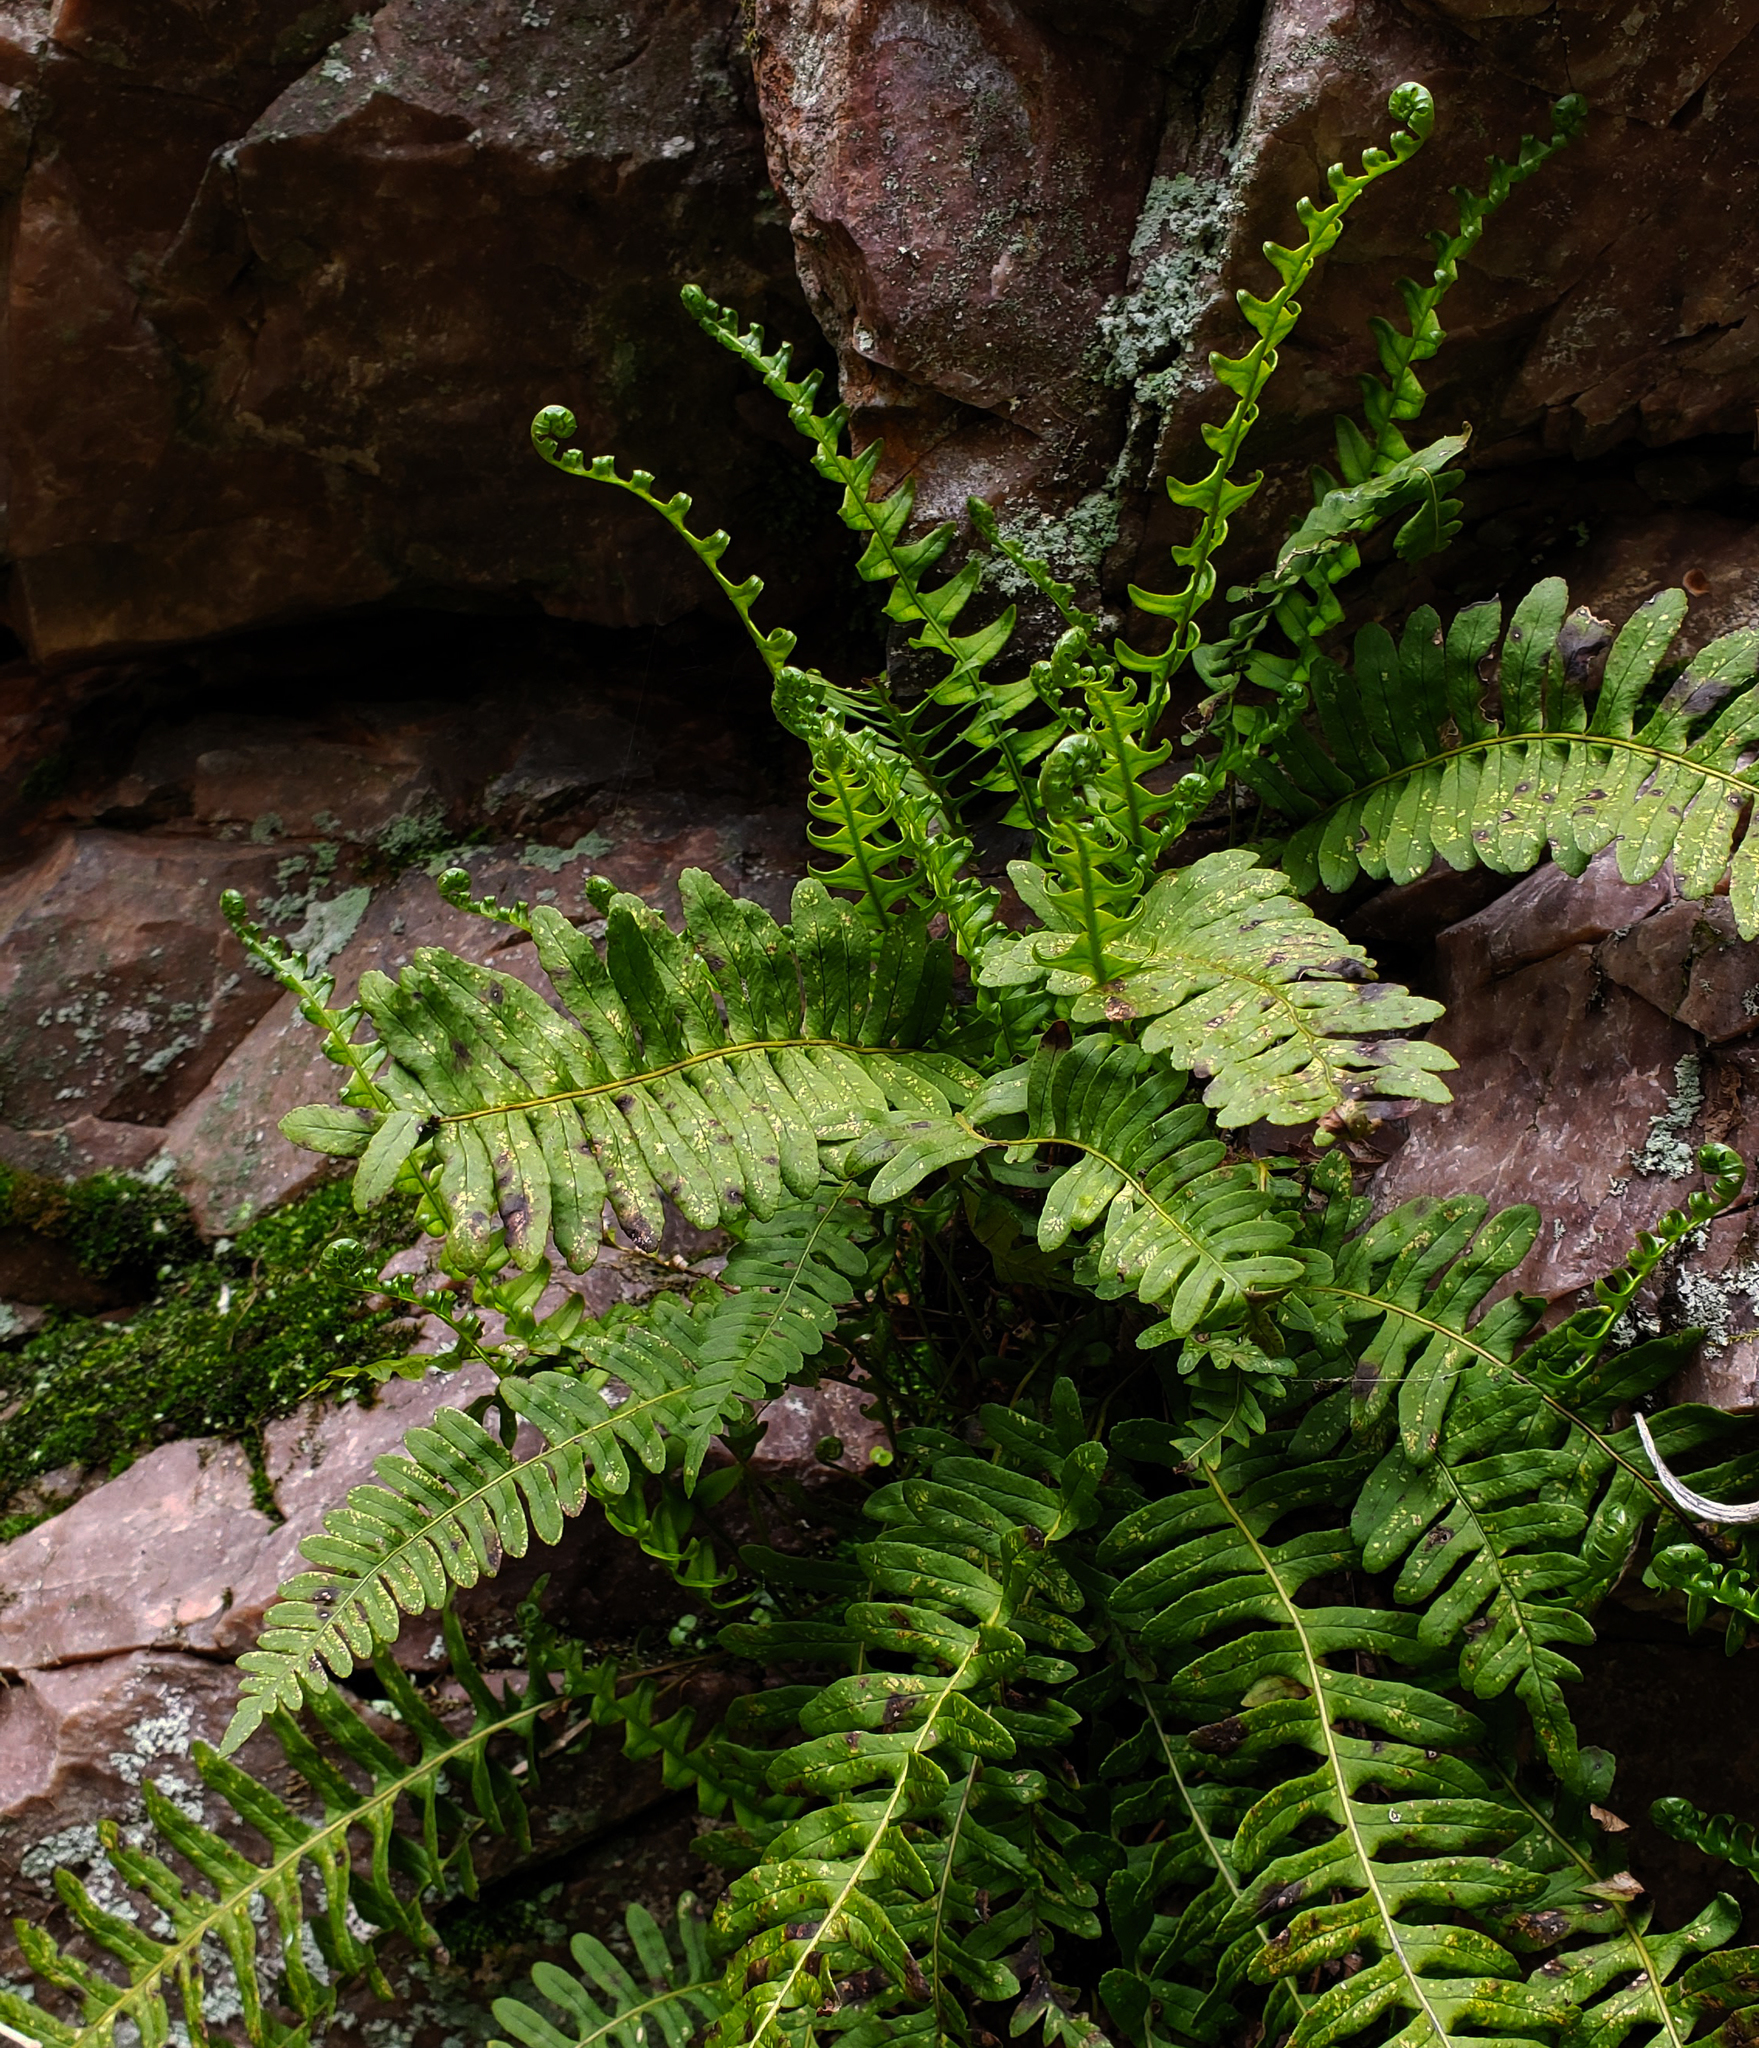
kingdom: Plantae
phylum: Tracheophyta
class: Polypodiopsida
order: Polypodiales
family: Polypodiaceae
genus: Polypodium
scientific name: Polypodium virginianum
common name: American wall fern
